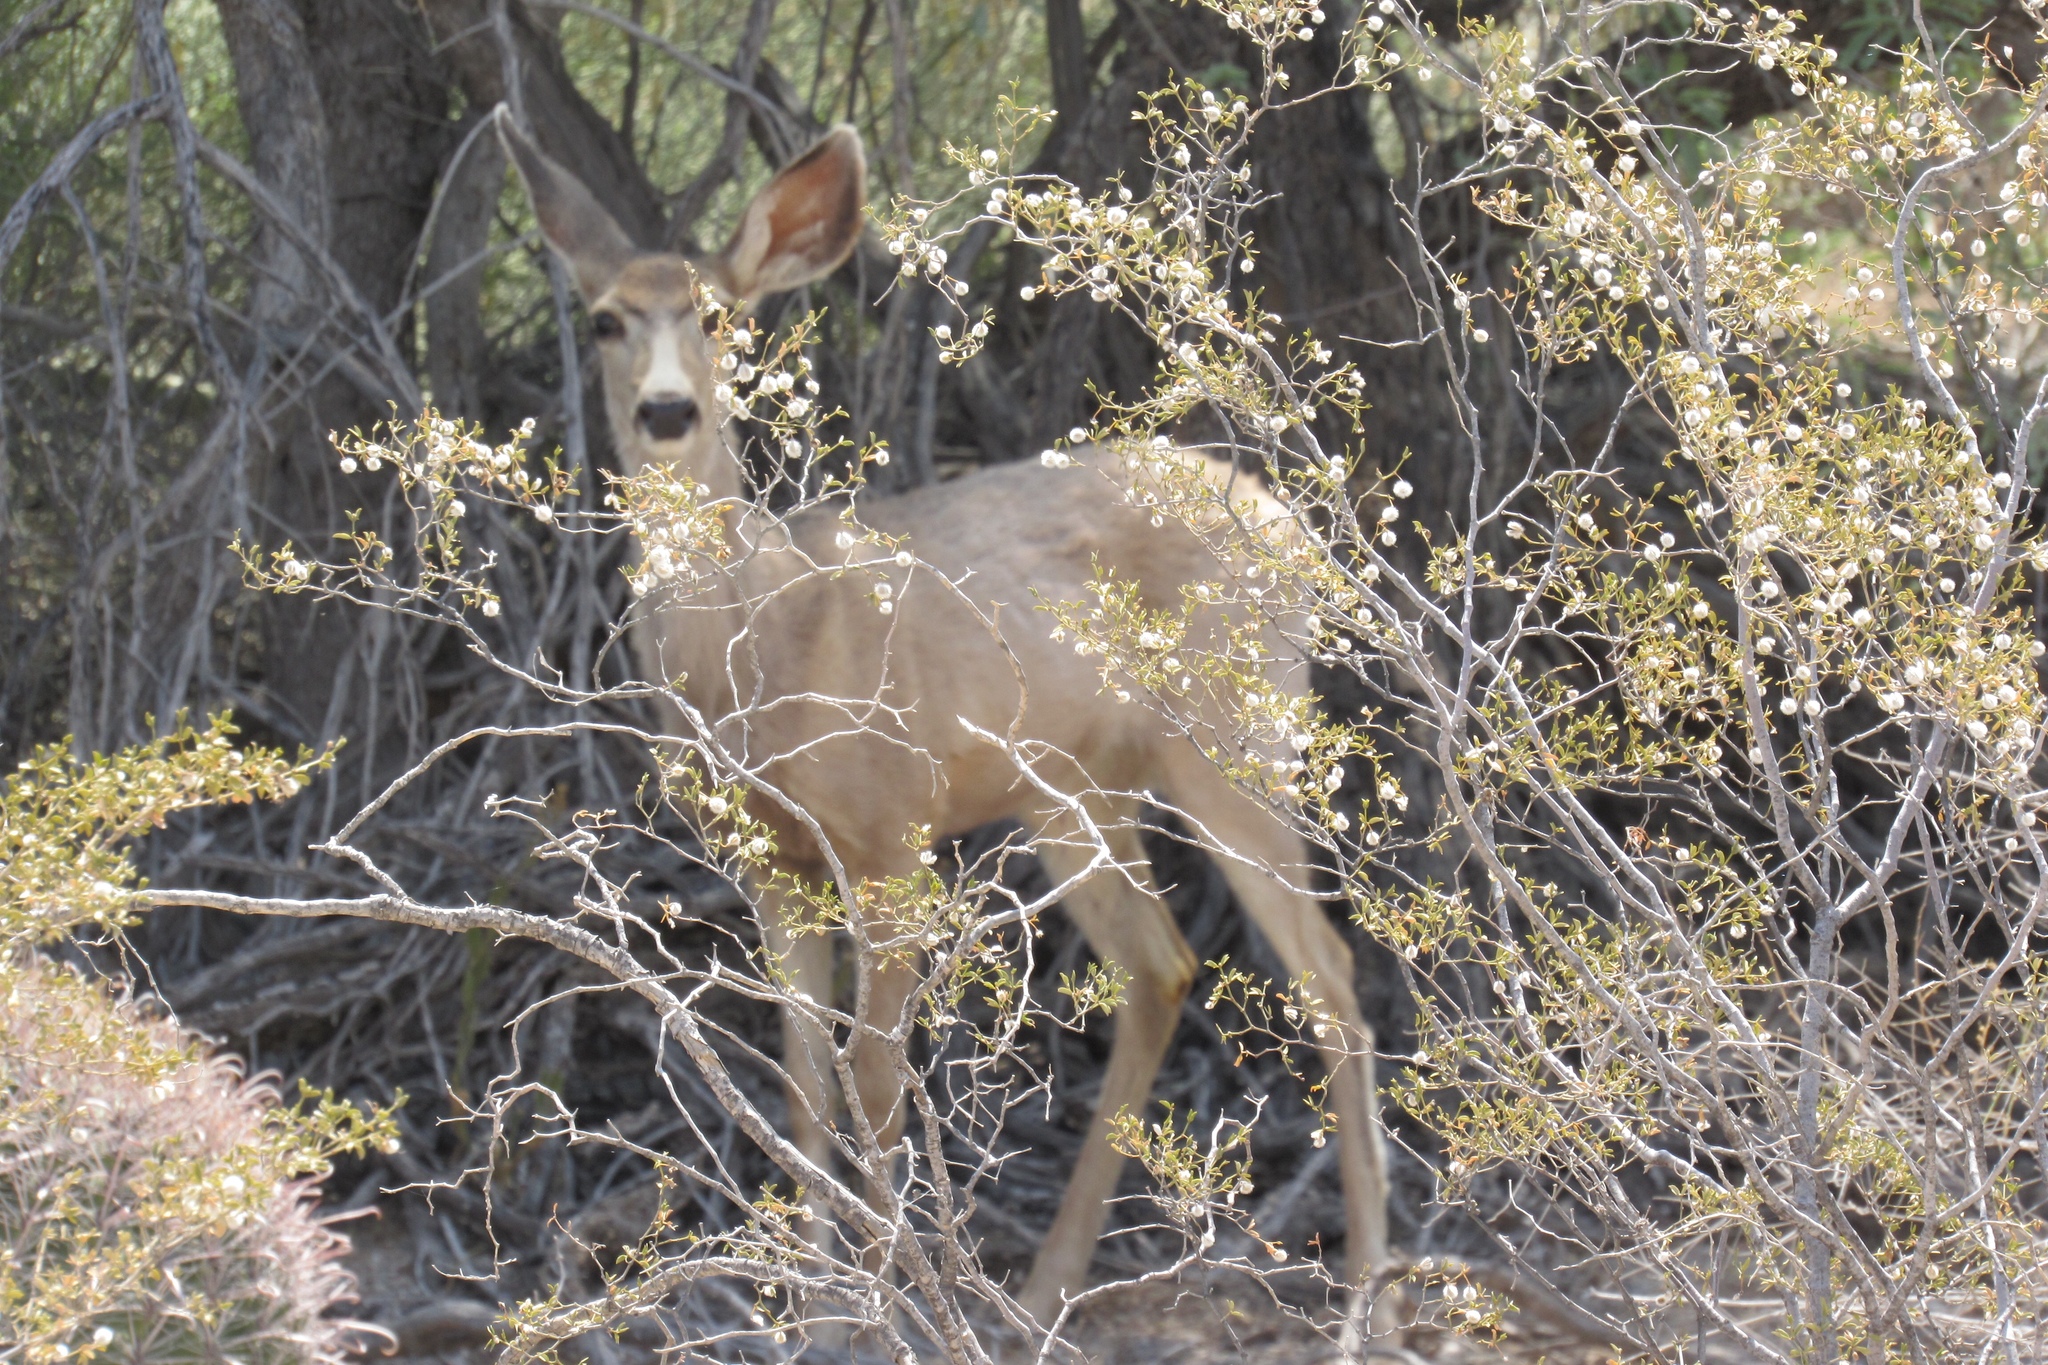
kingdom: Animalia
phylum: Chordata
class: Mammalia
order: Artiodactyla
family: Cervidae
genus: Odocoileus
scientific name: Odocoileus hemionus
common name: Mule deer
